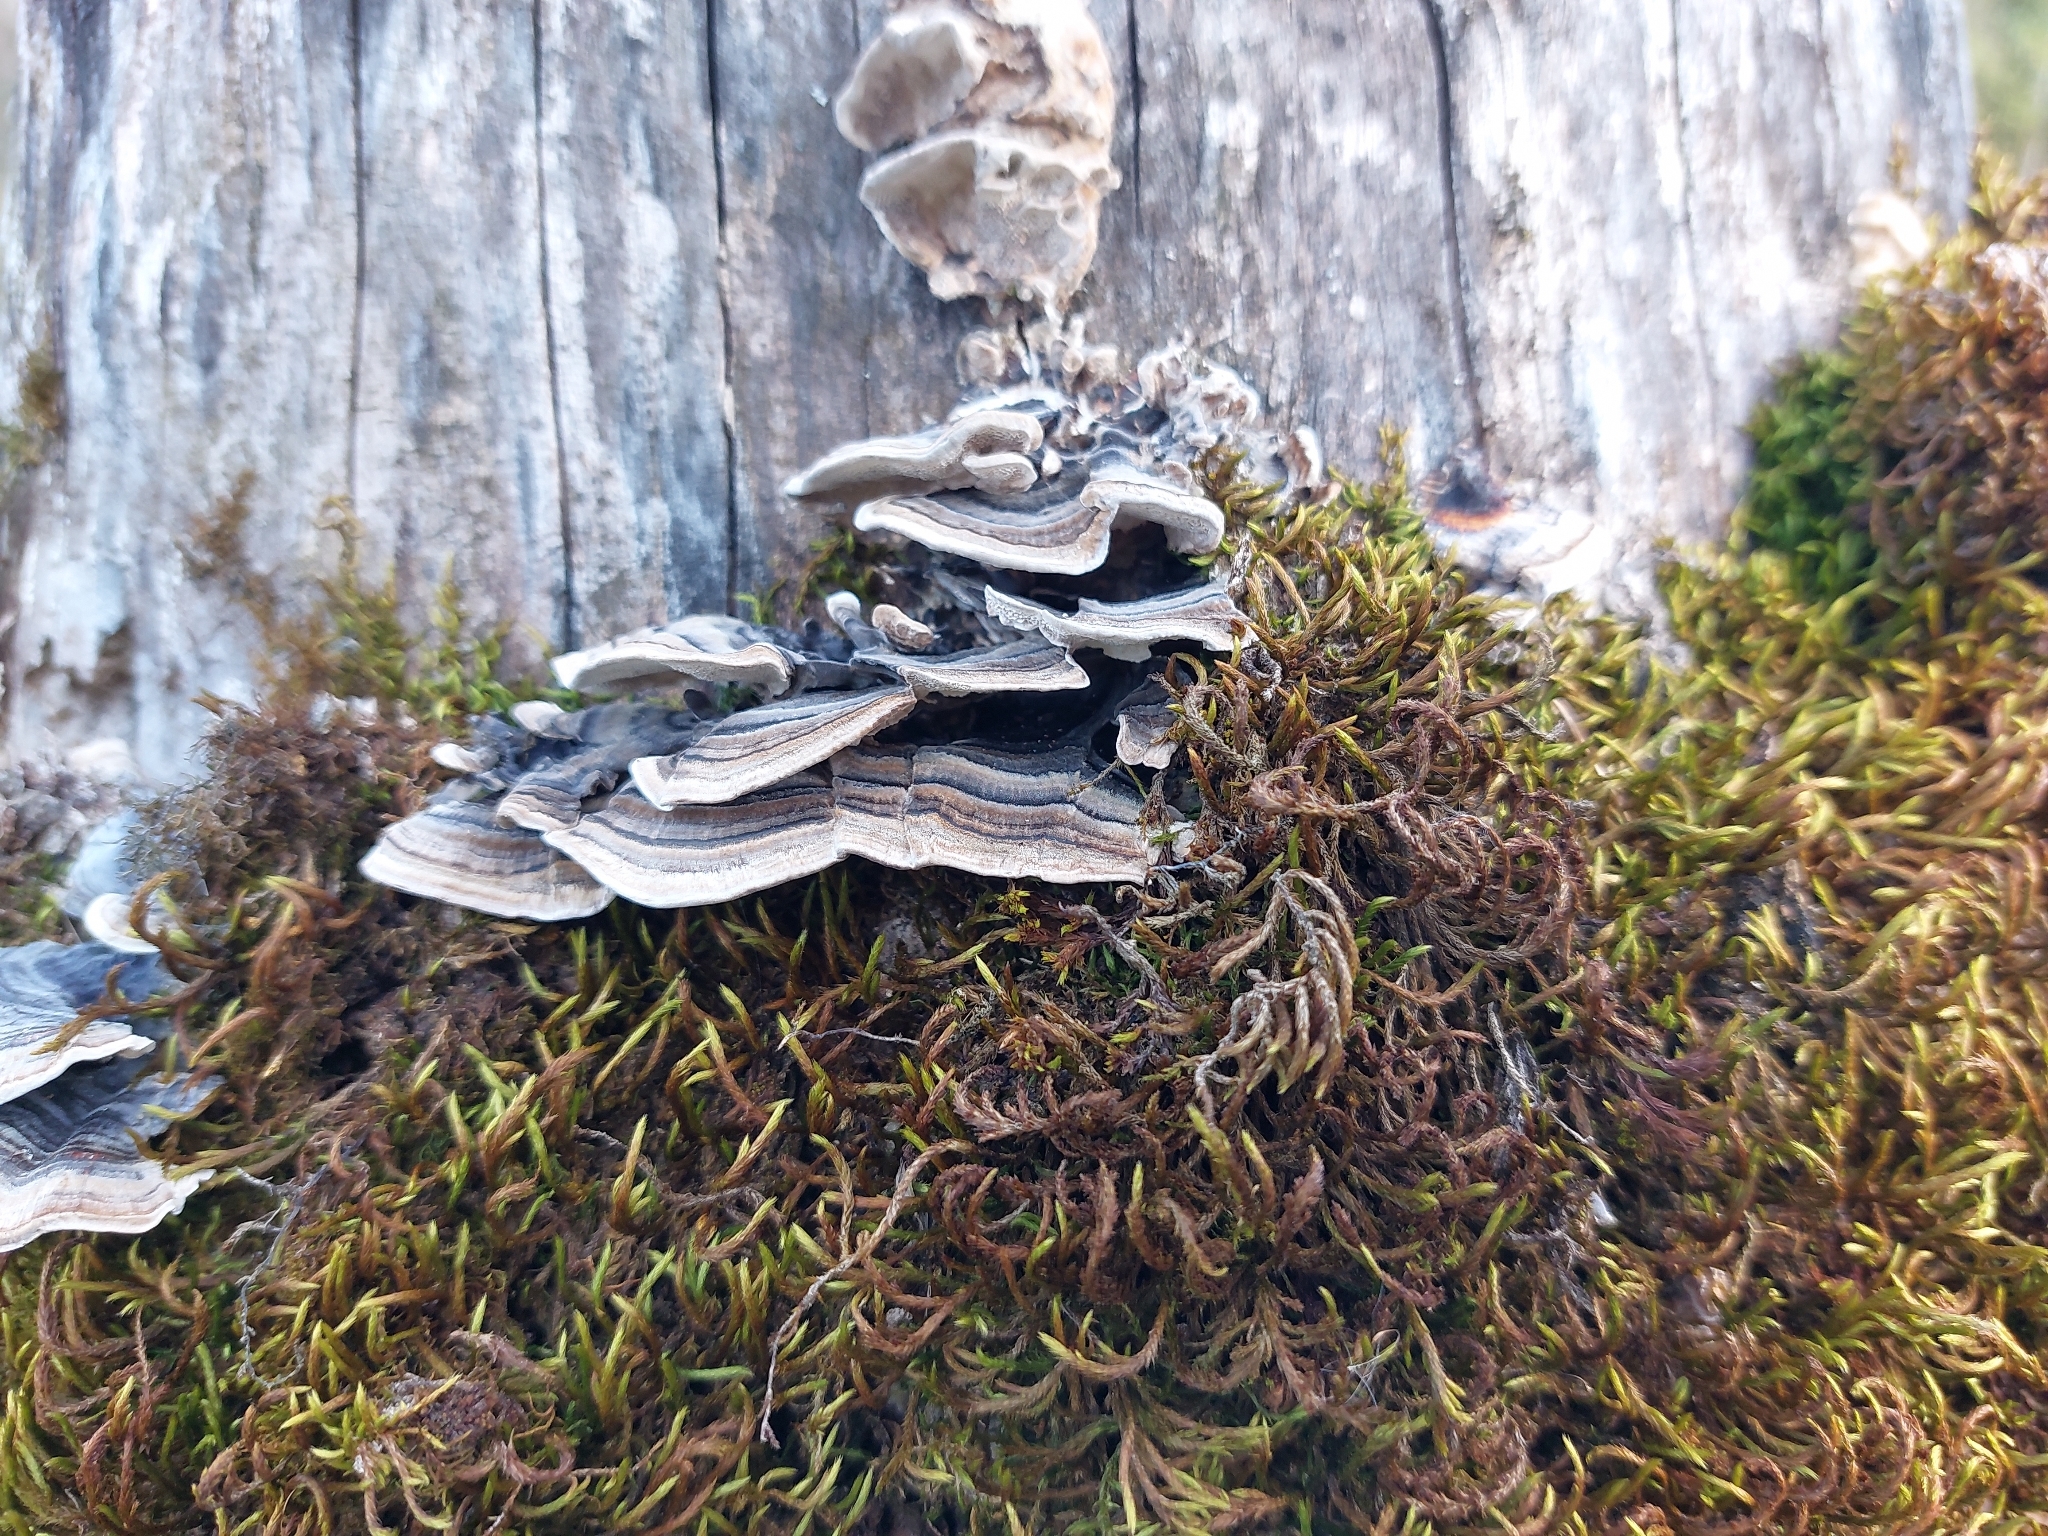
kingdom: Fungi
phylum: Basidiomycota
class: Agaricomycetes
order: Polyporales
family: Polyporaceae
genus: Trametes
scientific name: Trametes versicolor
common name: Turkeytail
